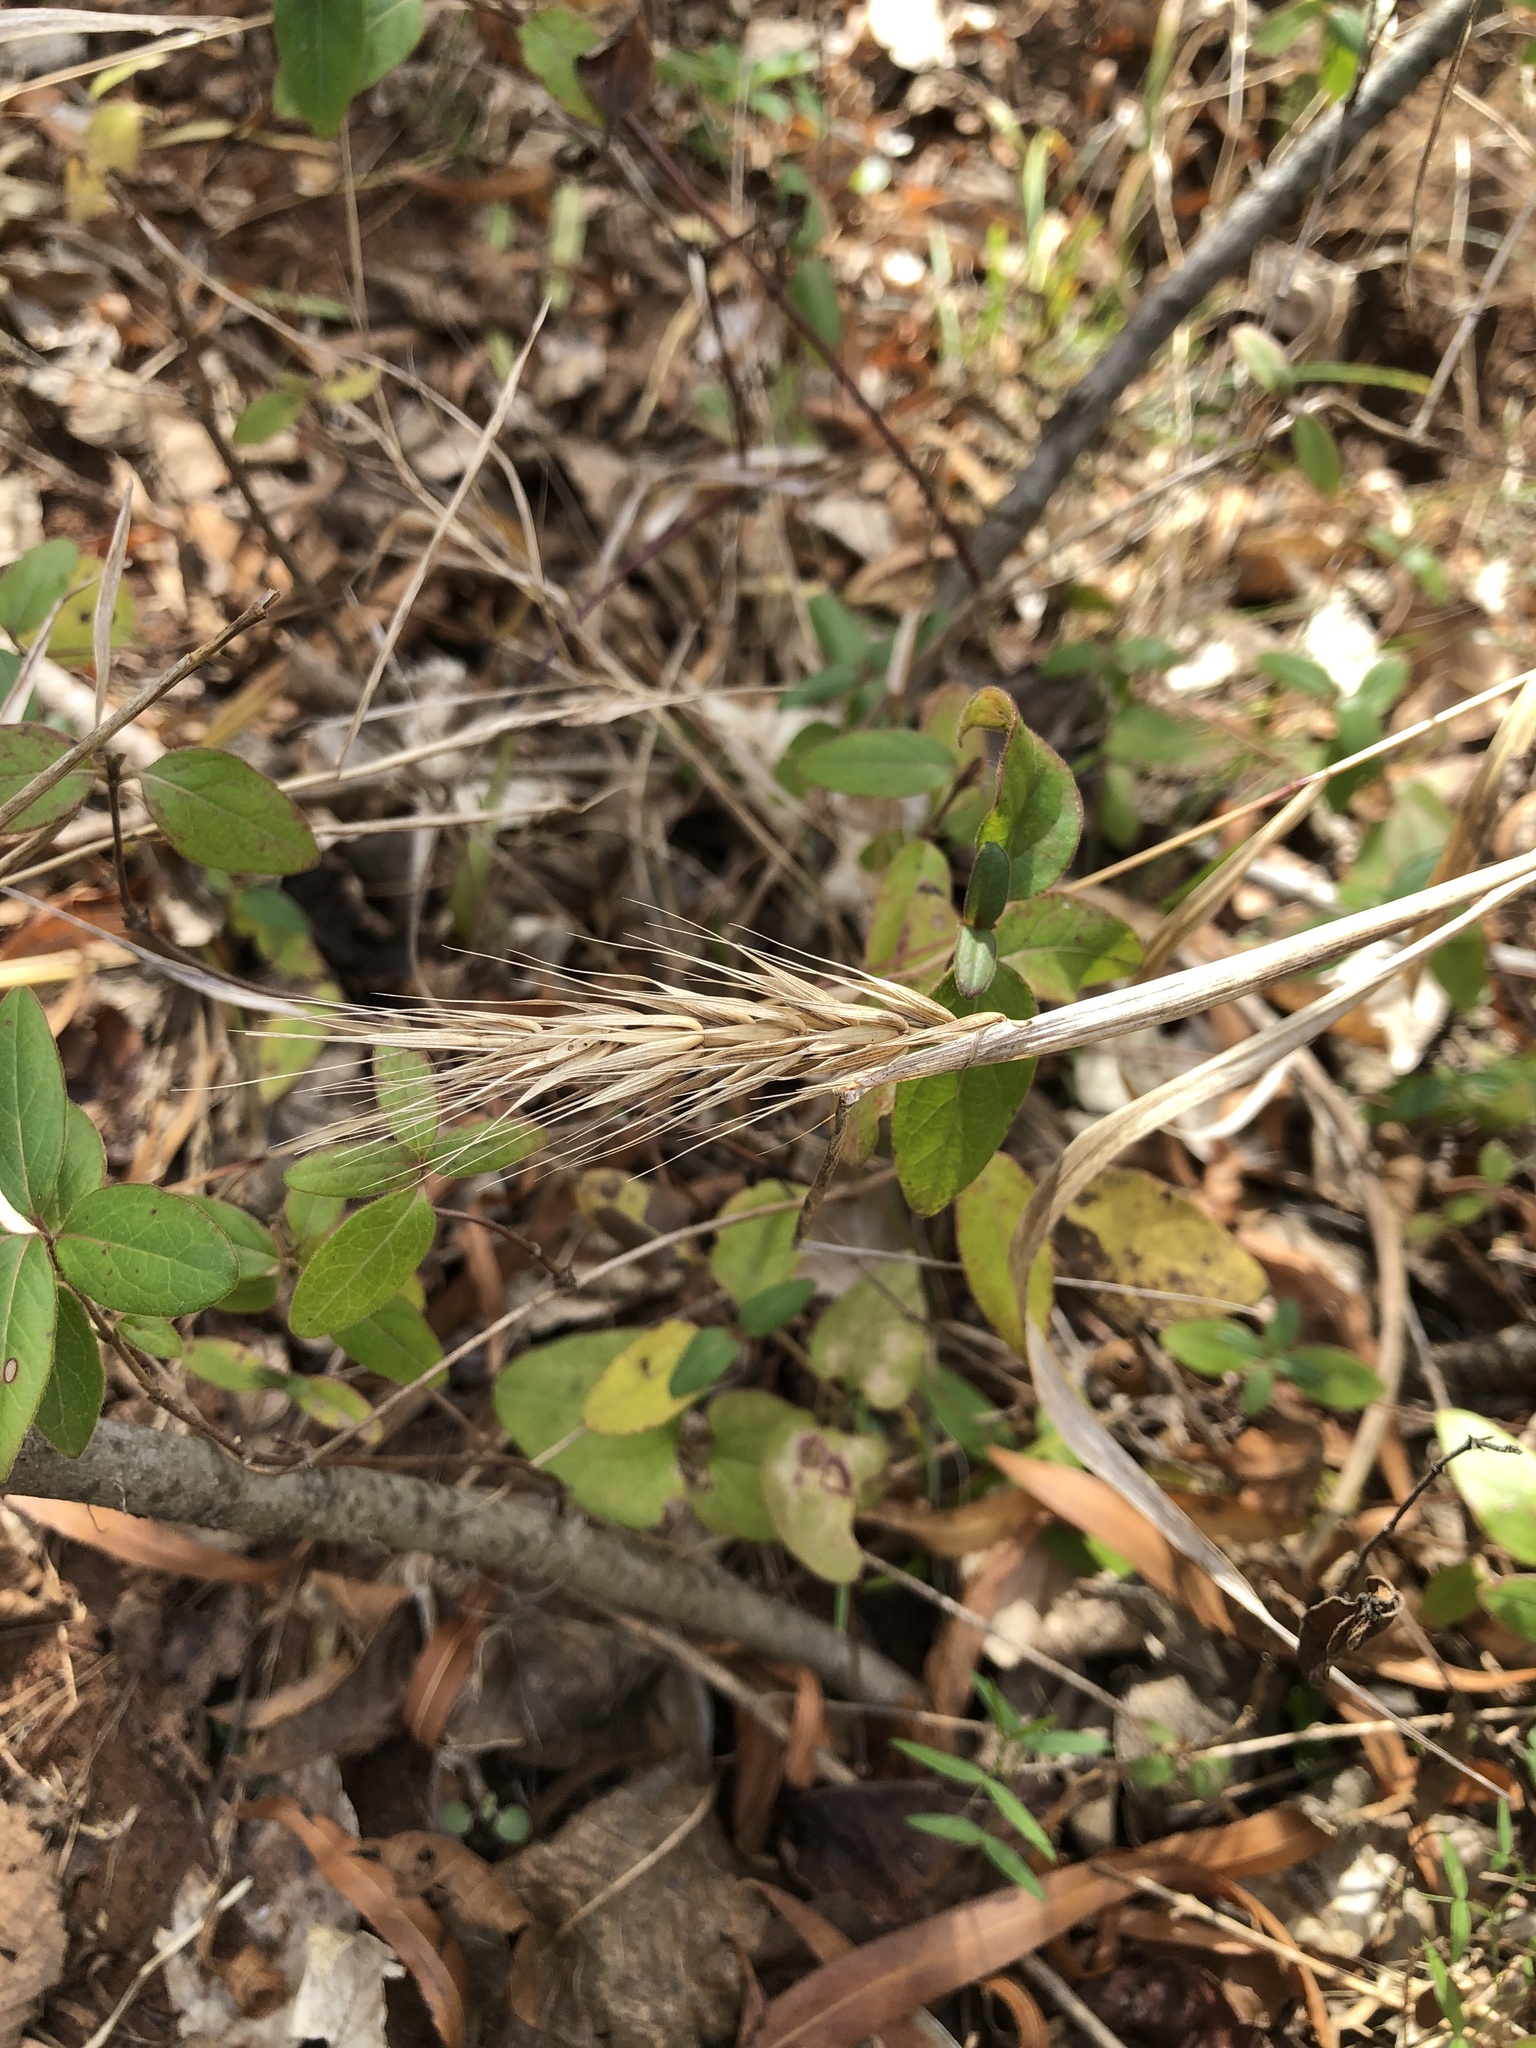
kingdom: Plantae
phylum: Tracheophyta
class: Liliopsida
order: Poales
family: Poaceae
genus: Elymus
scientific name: Elymus virginicus
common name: Common eastern wildrye
